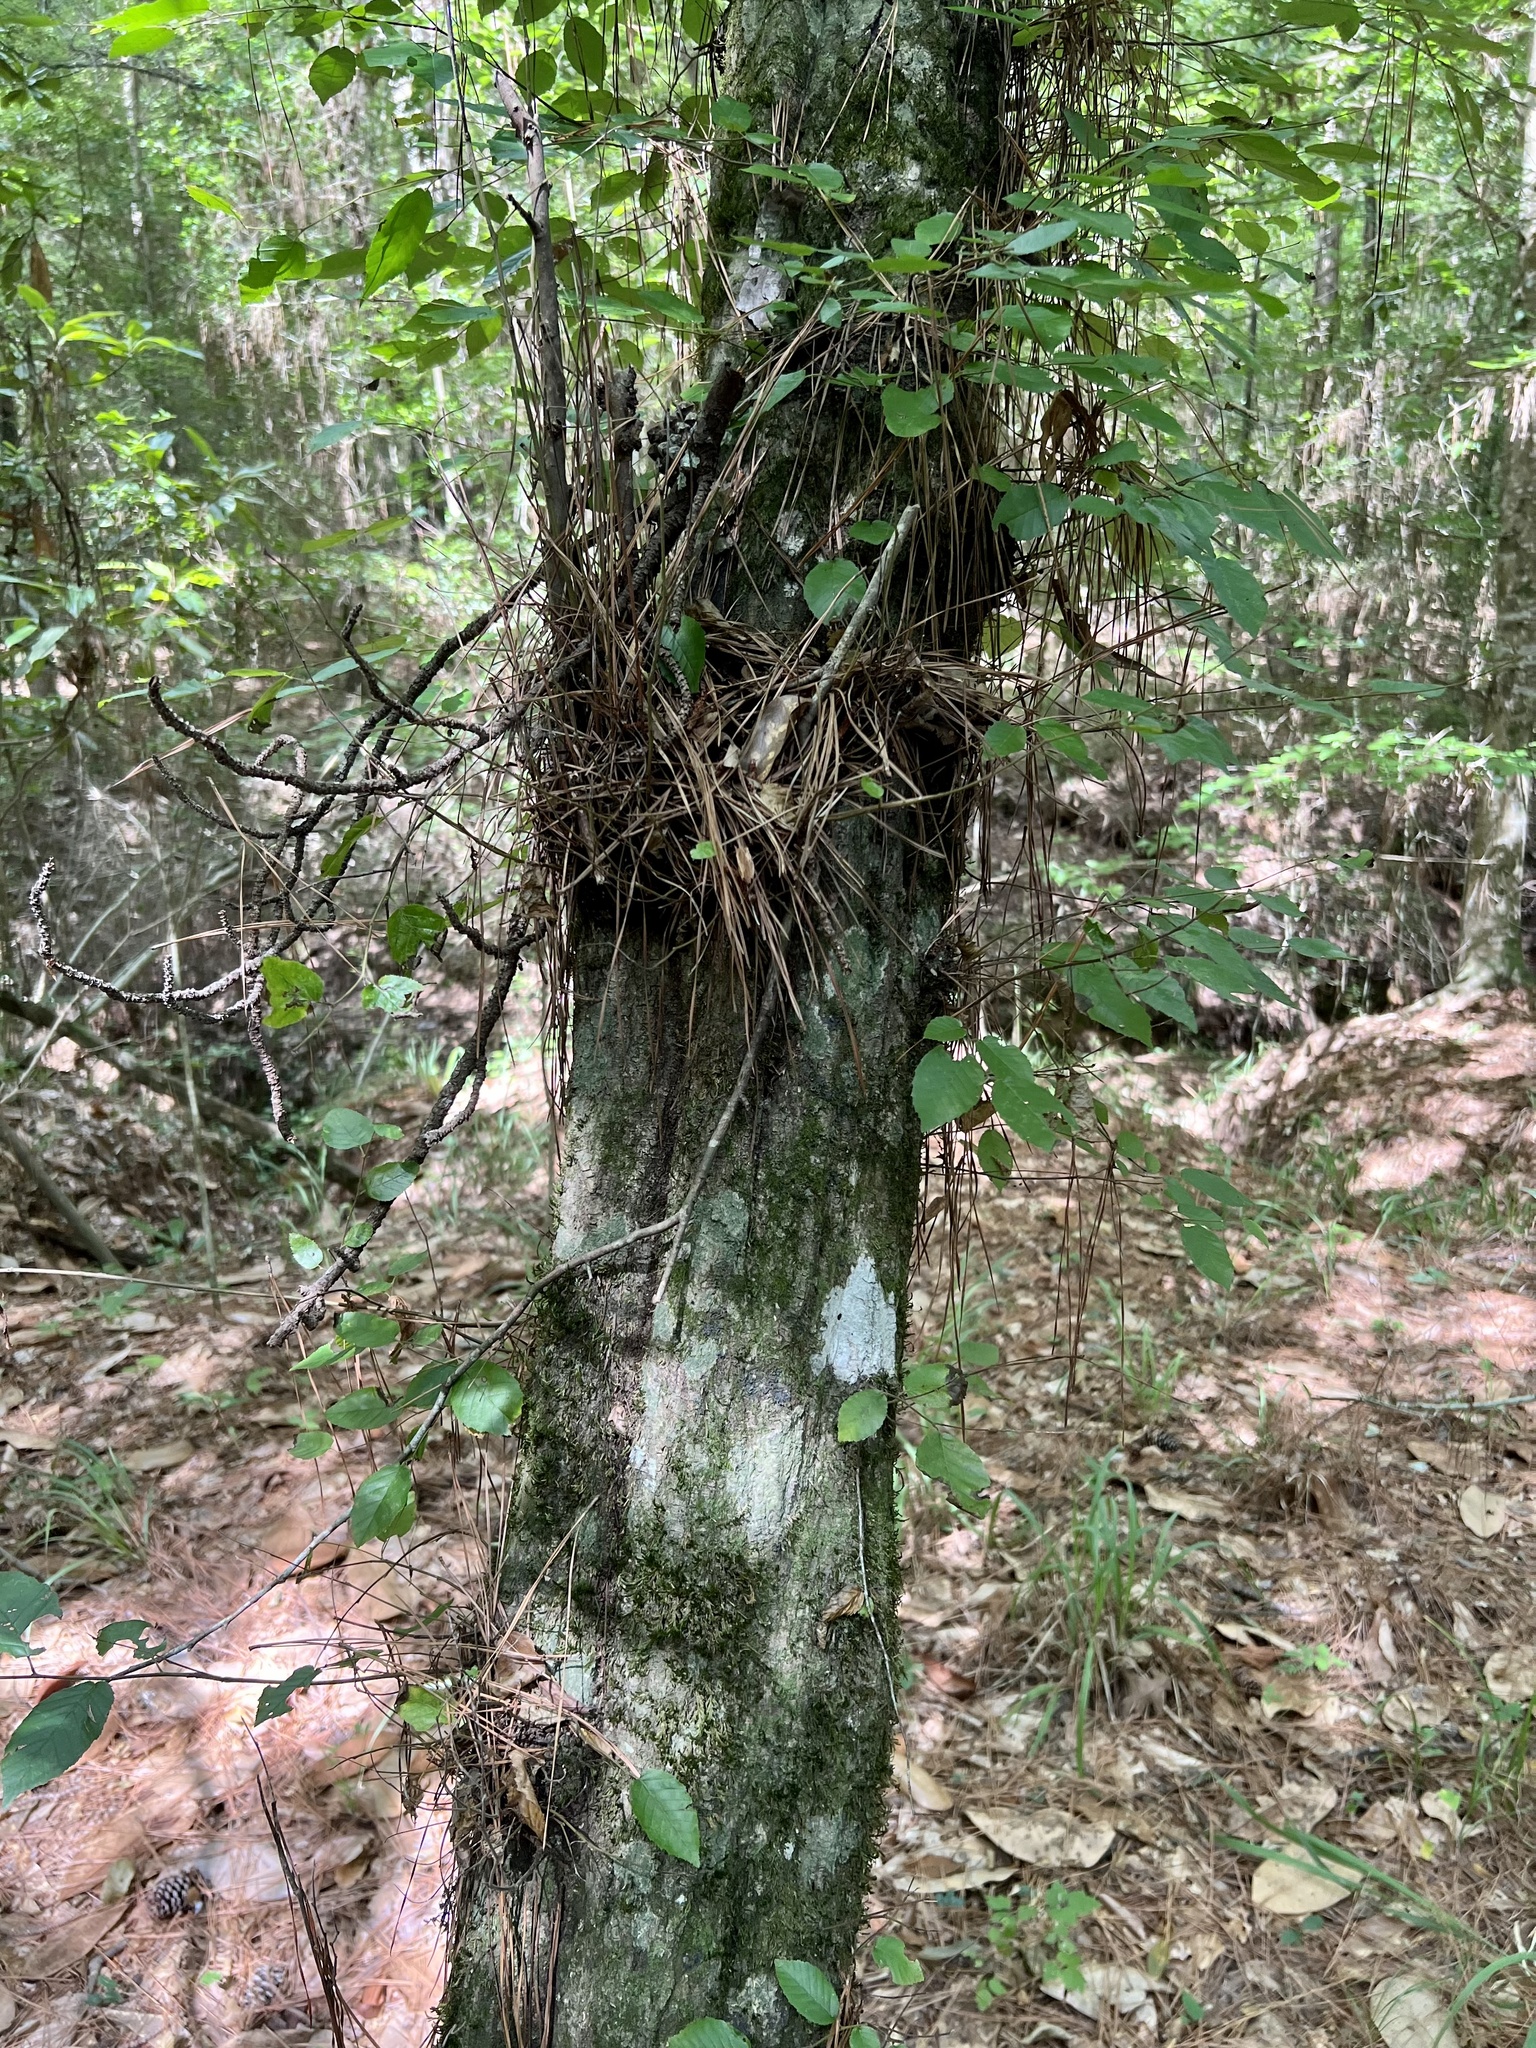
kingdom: Plantae
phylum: Tracheophyta
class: Magnoliopsida
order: Fagales
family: Betulaceae
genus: Carpinus
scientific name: Carpinus caroliniana
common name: American hornbeam
